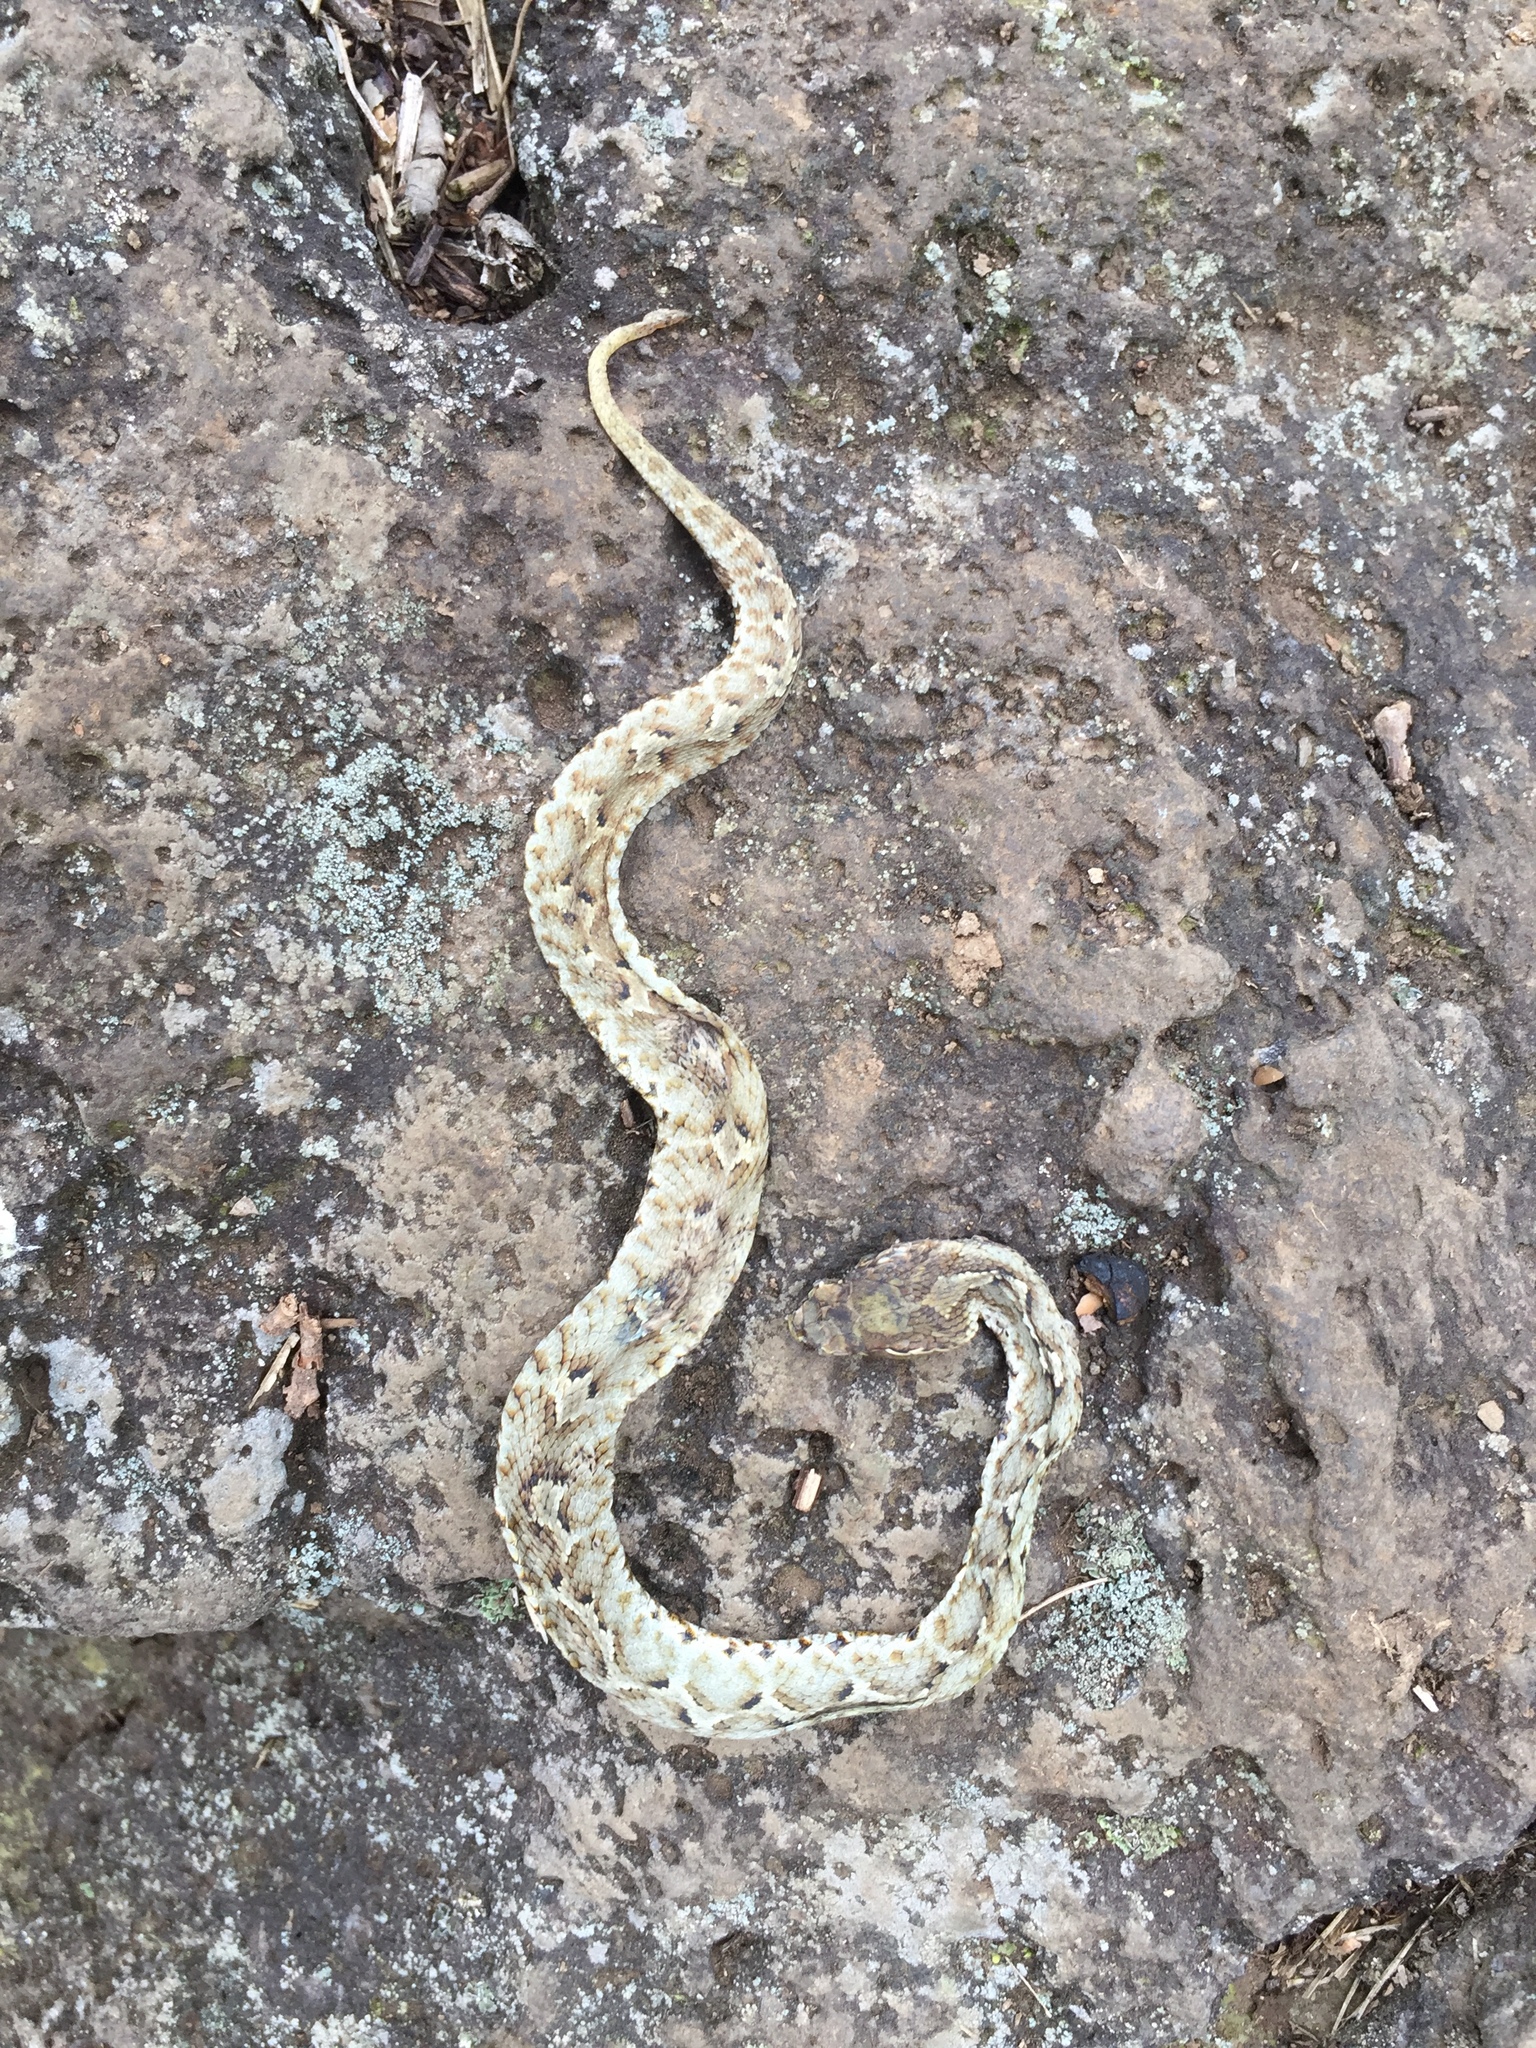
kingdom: Animalia
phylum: Chordata
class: Squamata
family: Viperidae
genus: Gloydius
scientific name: Gloydius ussuriensis
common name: Ussuri mamushi
